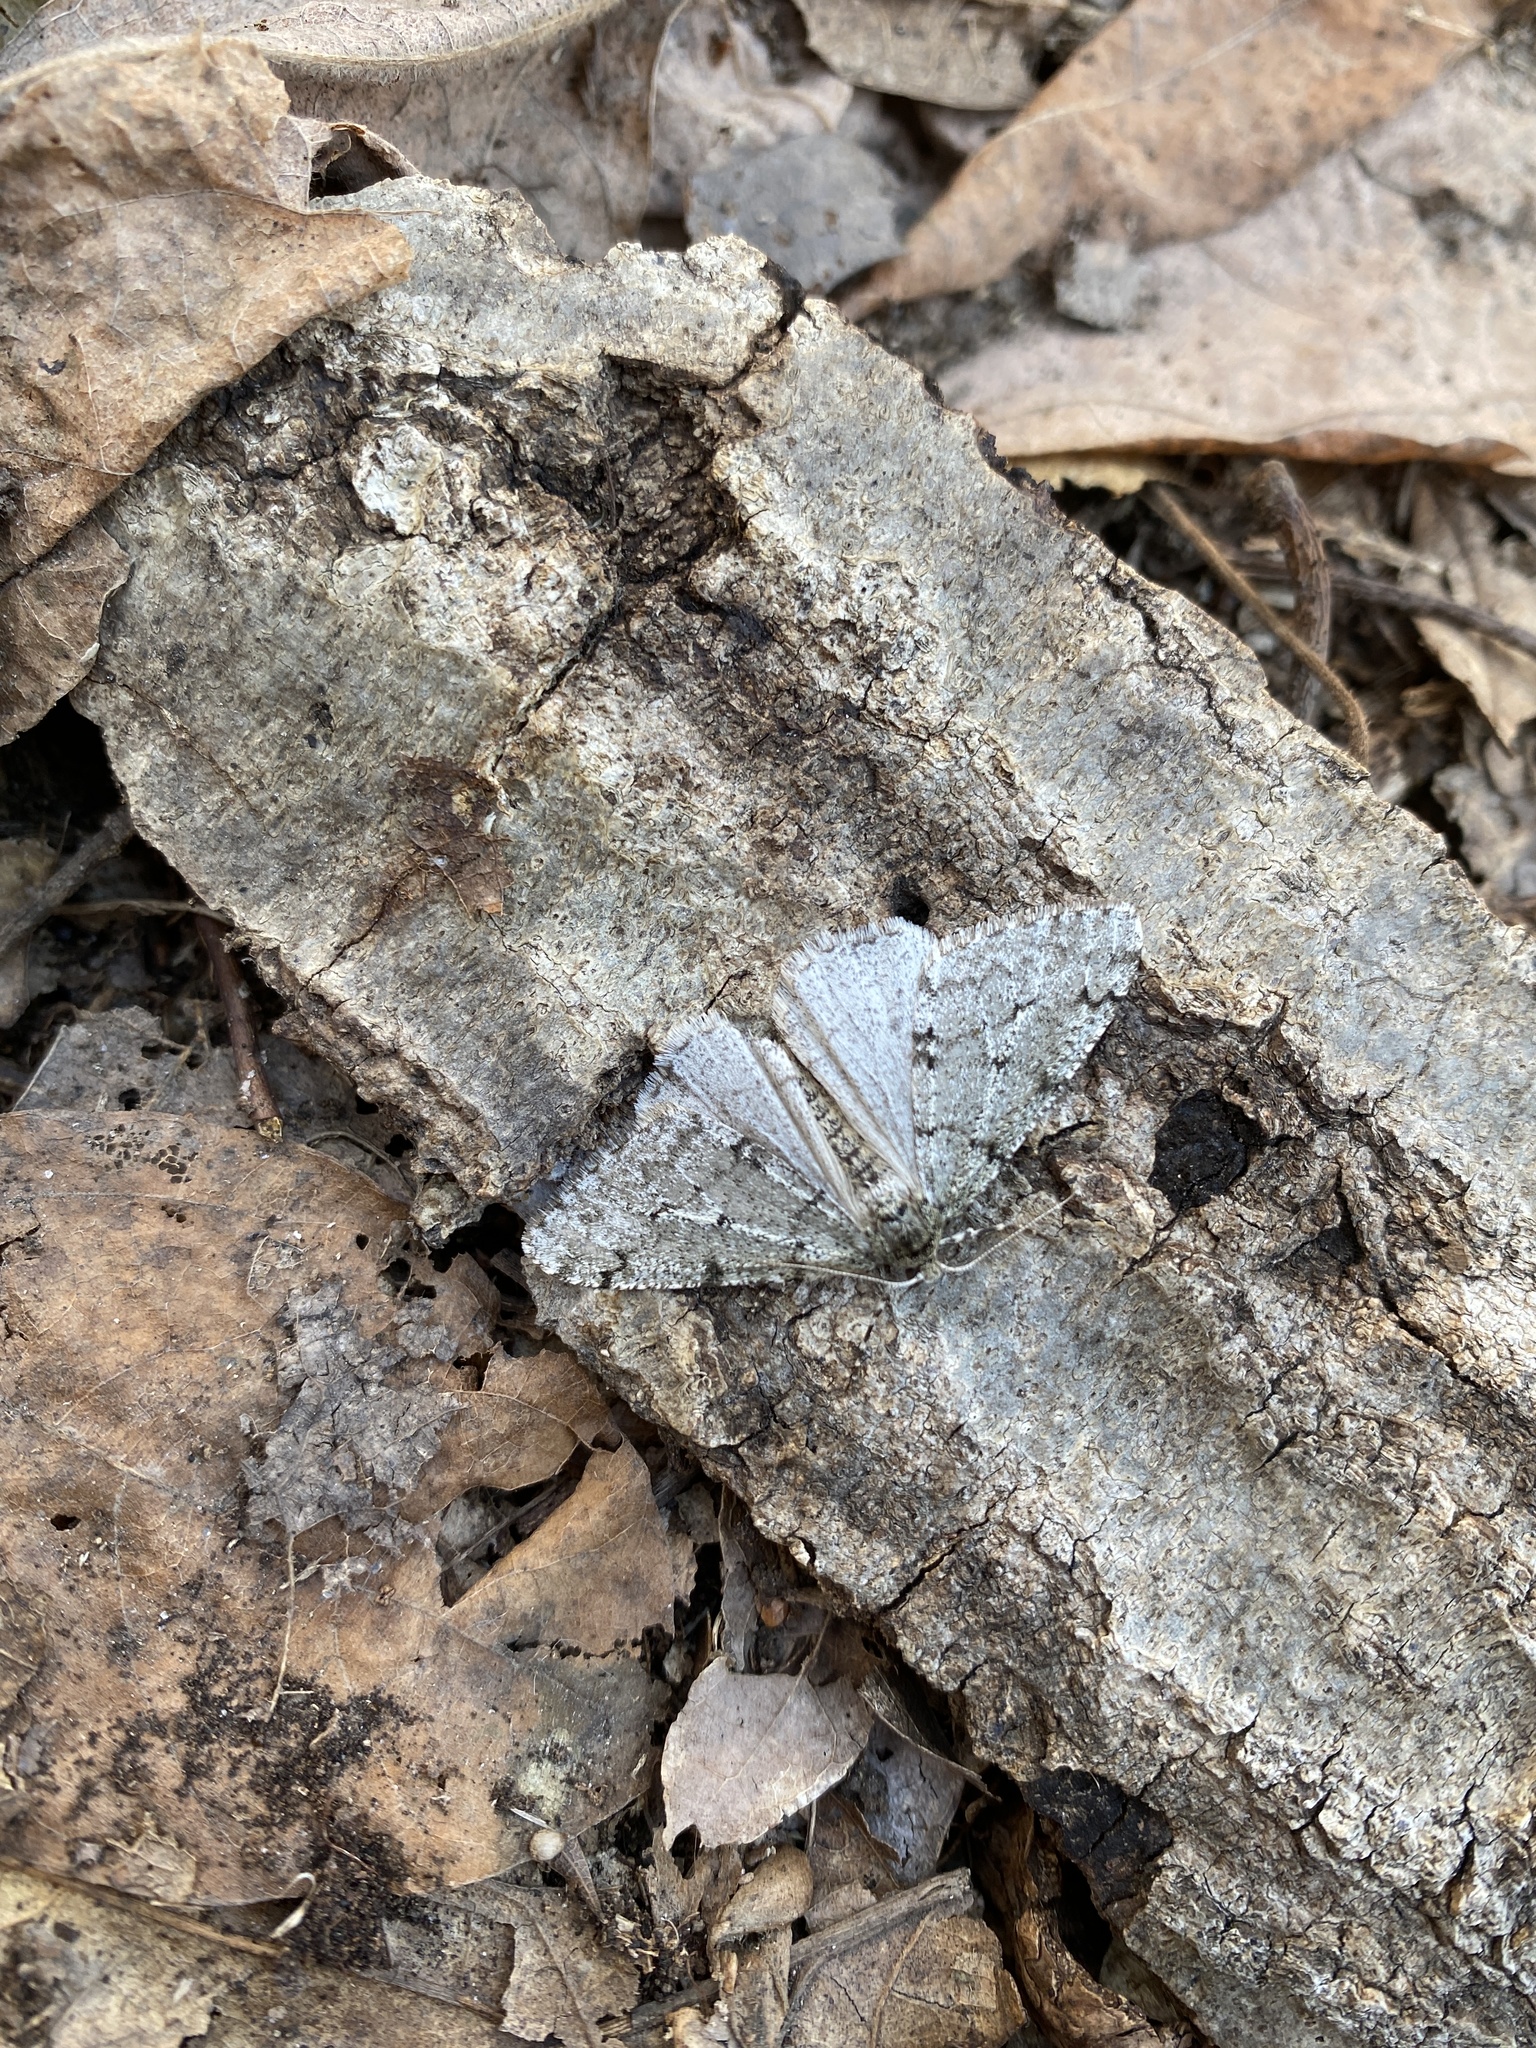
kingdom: Animalia
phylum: Arthropoda
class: Insecta
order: Lepidoptera
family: Geometridae
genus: Phigalia
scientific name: Phigalia strigataria
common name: Small phigalia
